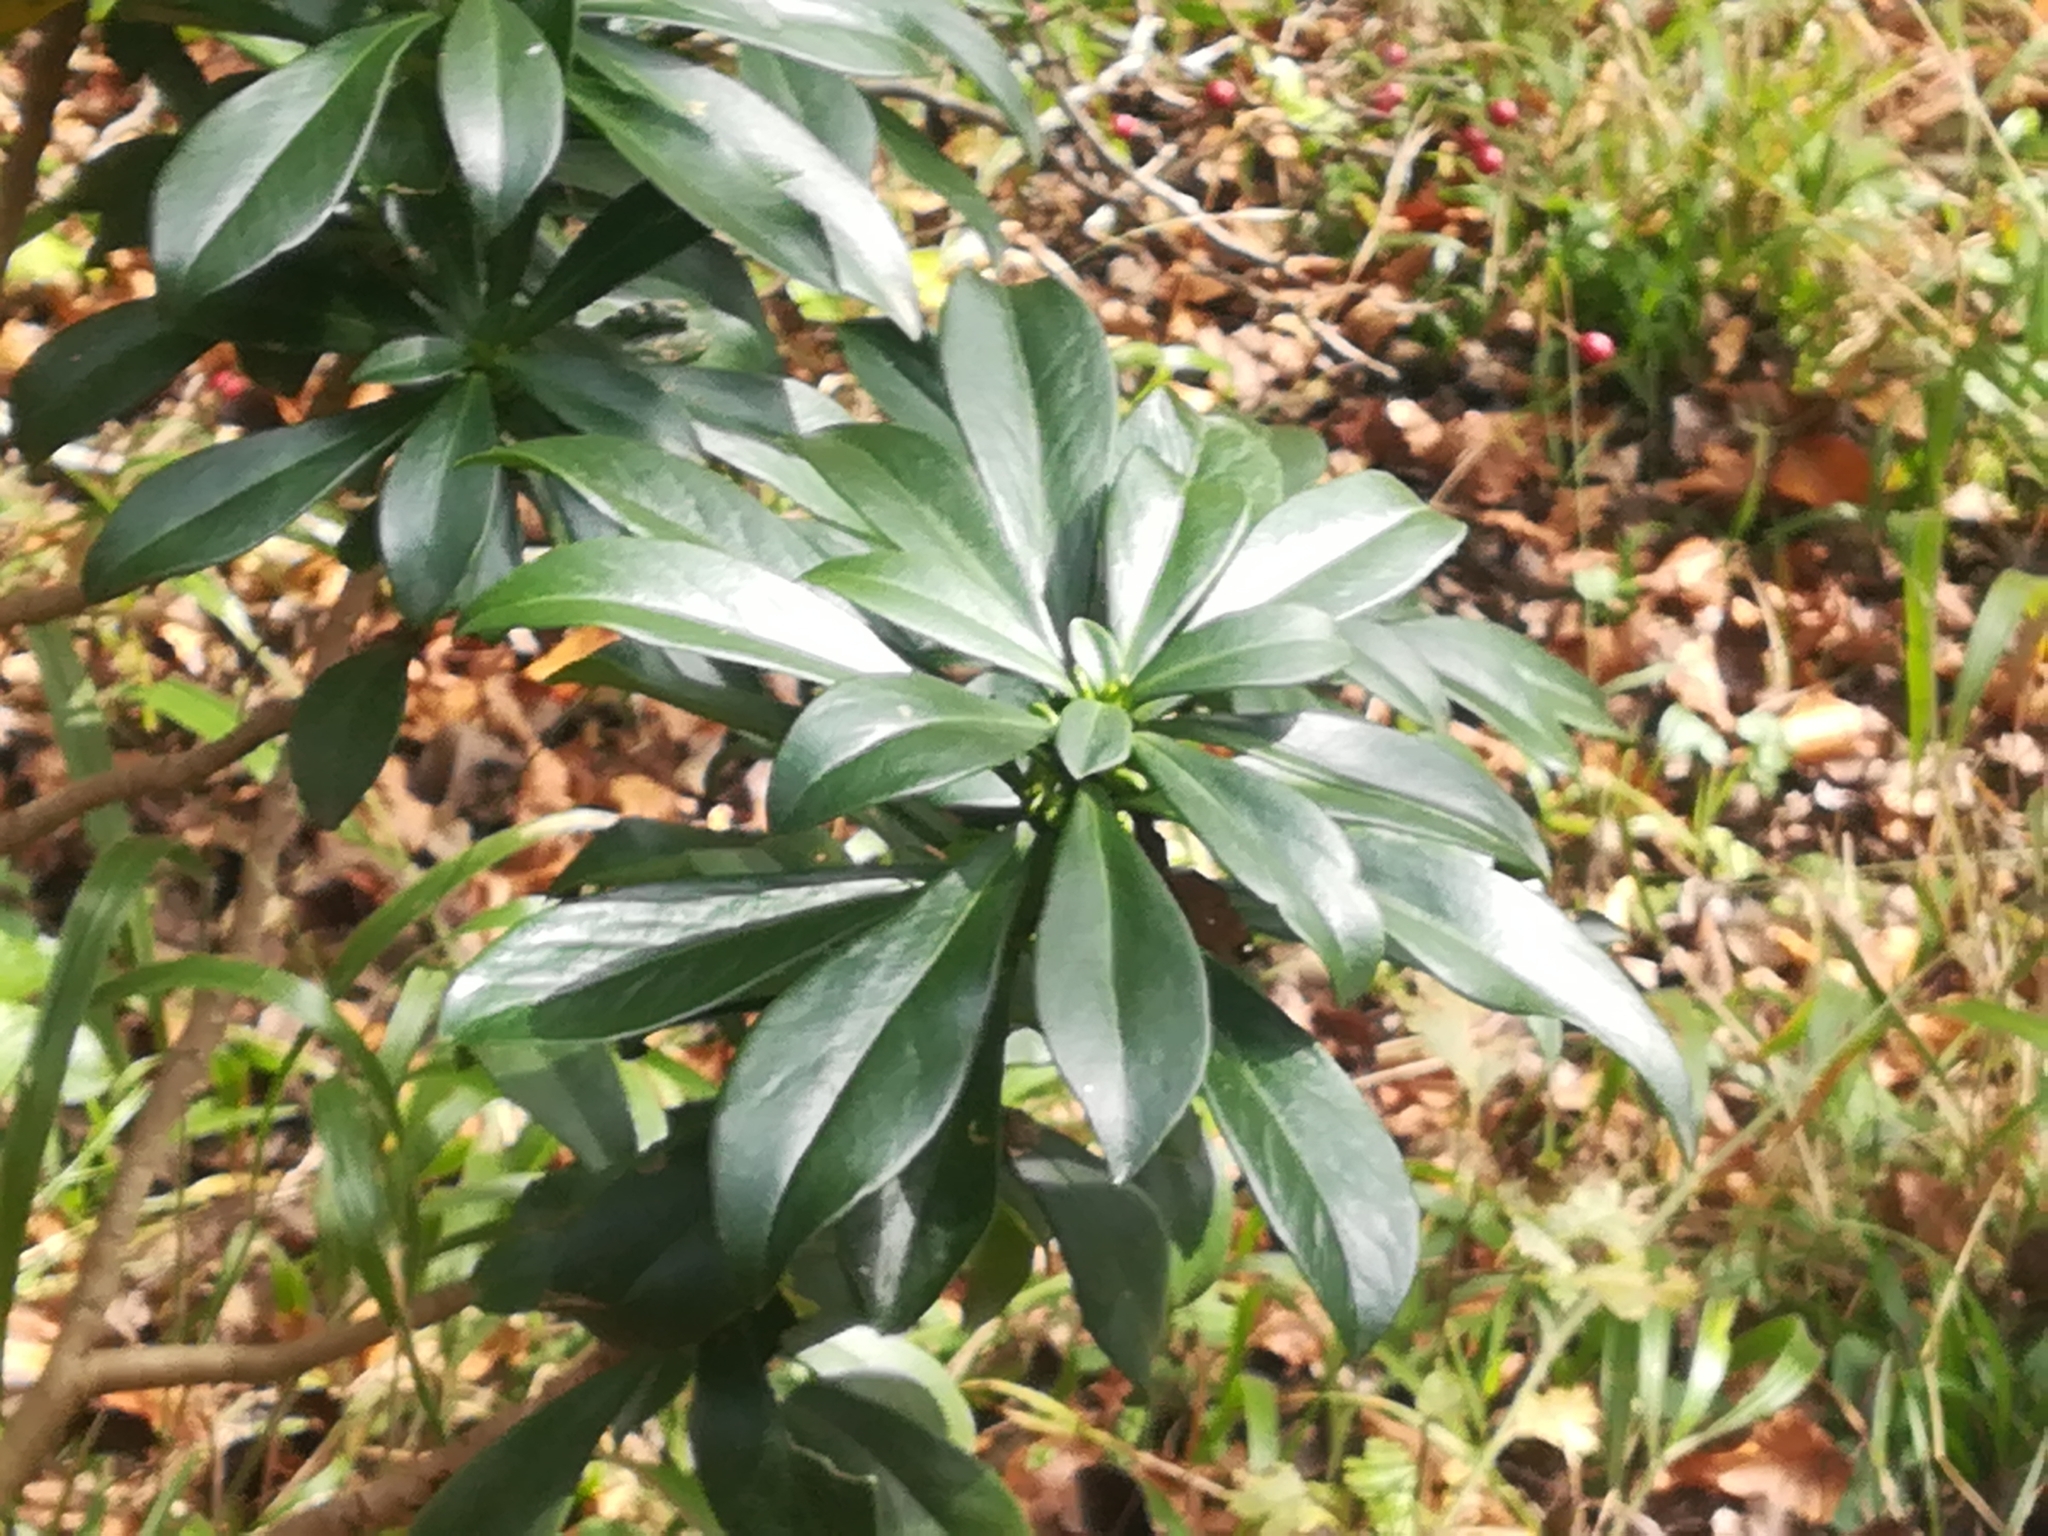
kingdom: Plantae
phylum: Tracheophyta
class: Magnoliopsida
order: Malvales
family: Thymelaeaceae
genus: Daphne
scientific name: Daphne laureola
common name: Spurge-laurel
